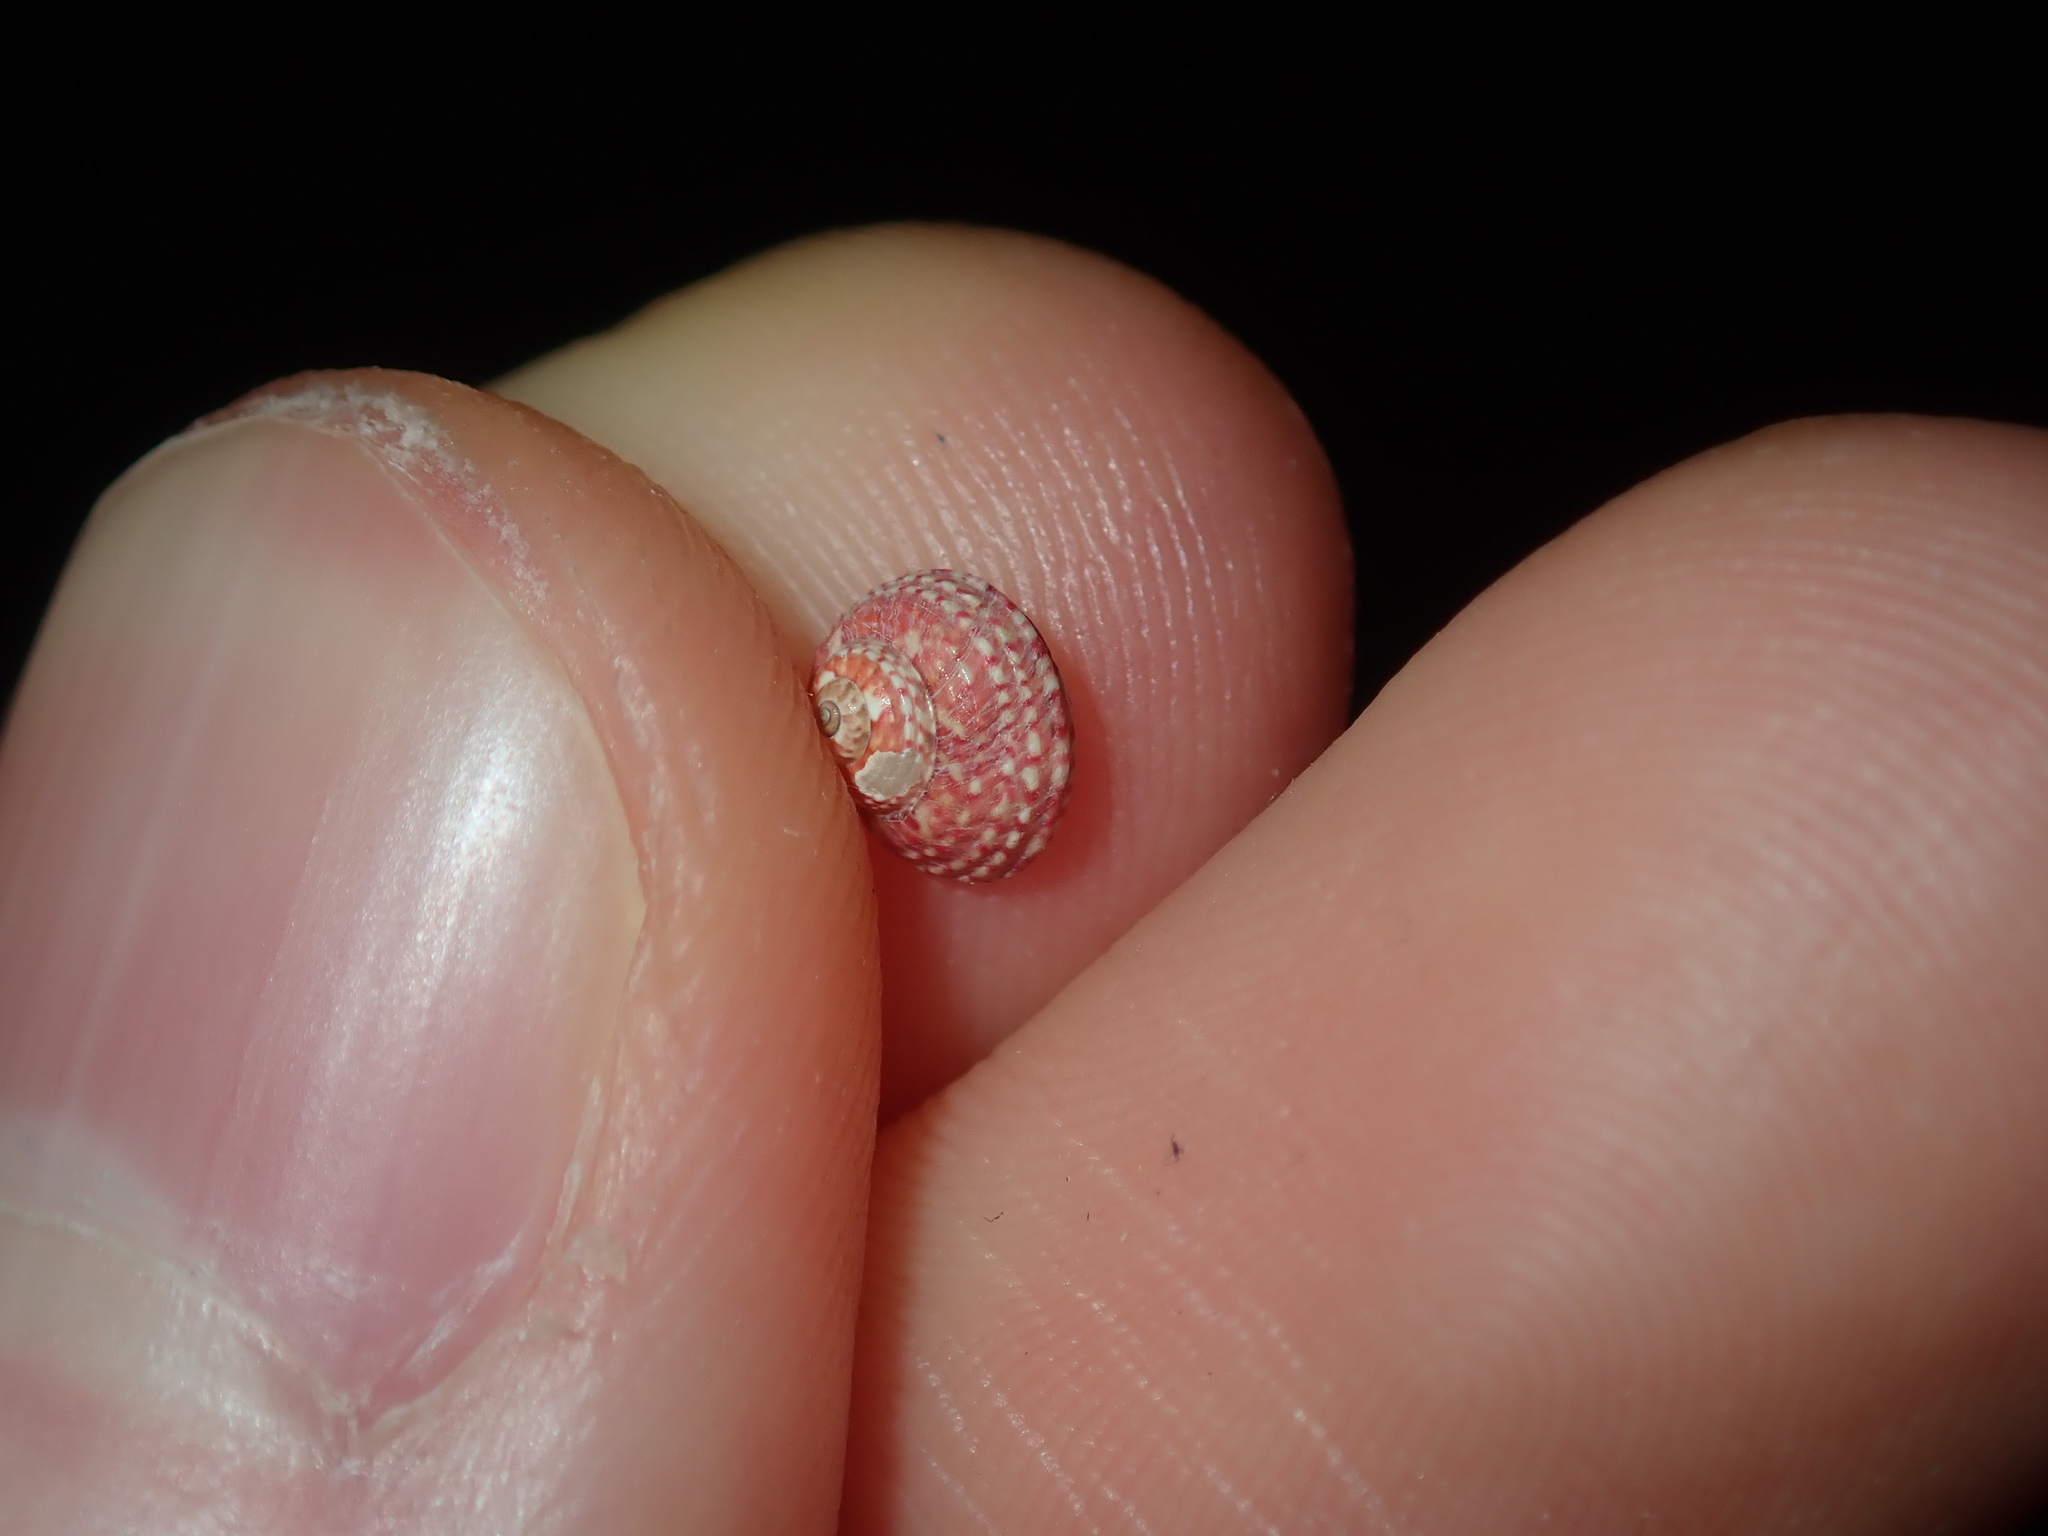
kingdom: Animalia
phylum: Mollusca
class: Gastropoda
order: Trochida
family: Trochidae
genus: Cantharidella
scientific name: Cantharidella picturata
